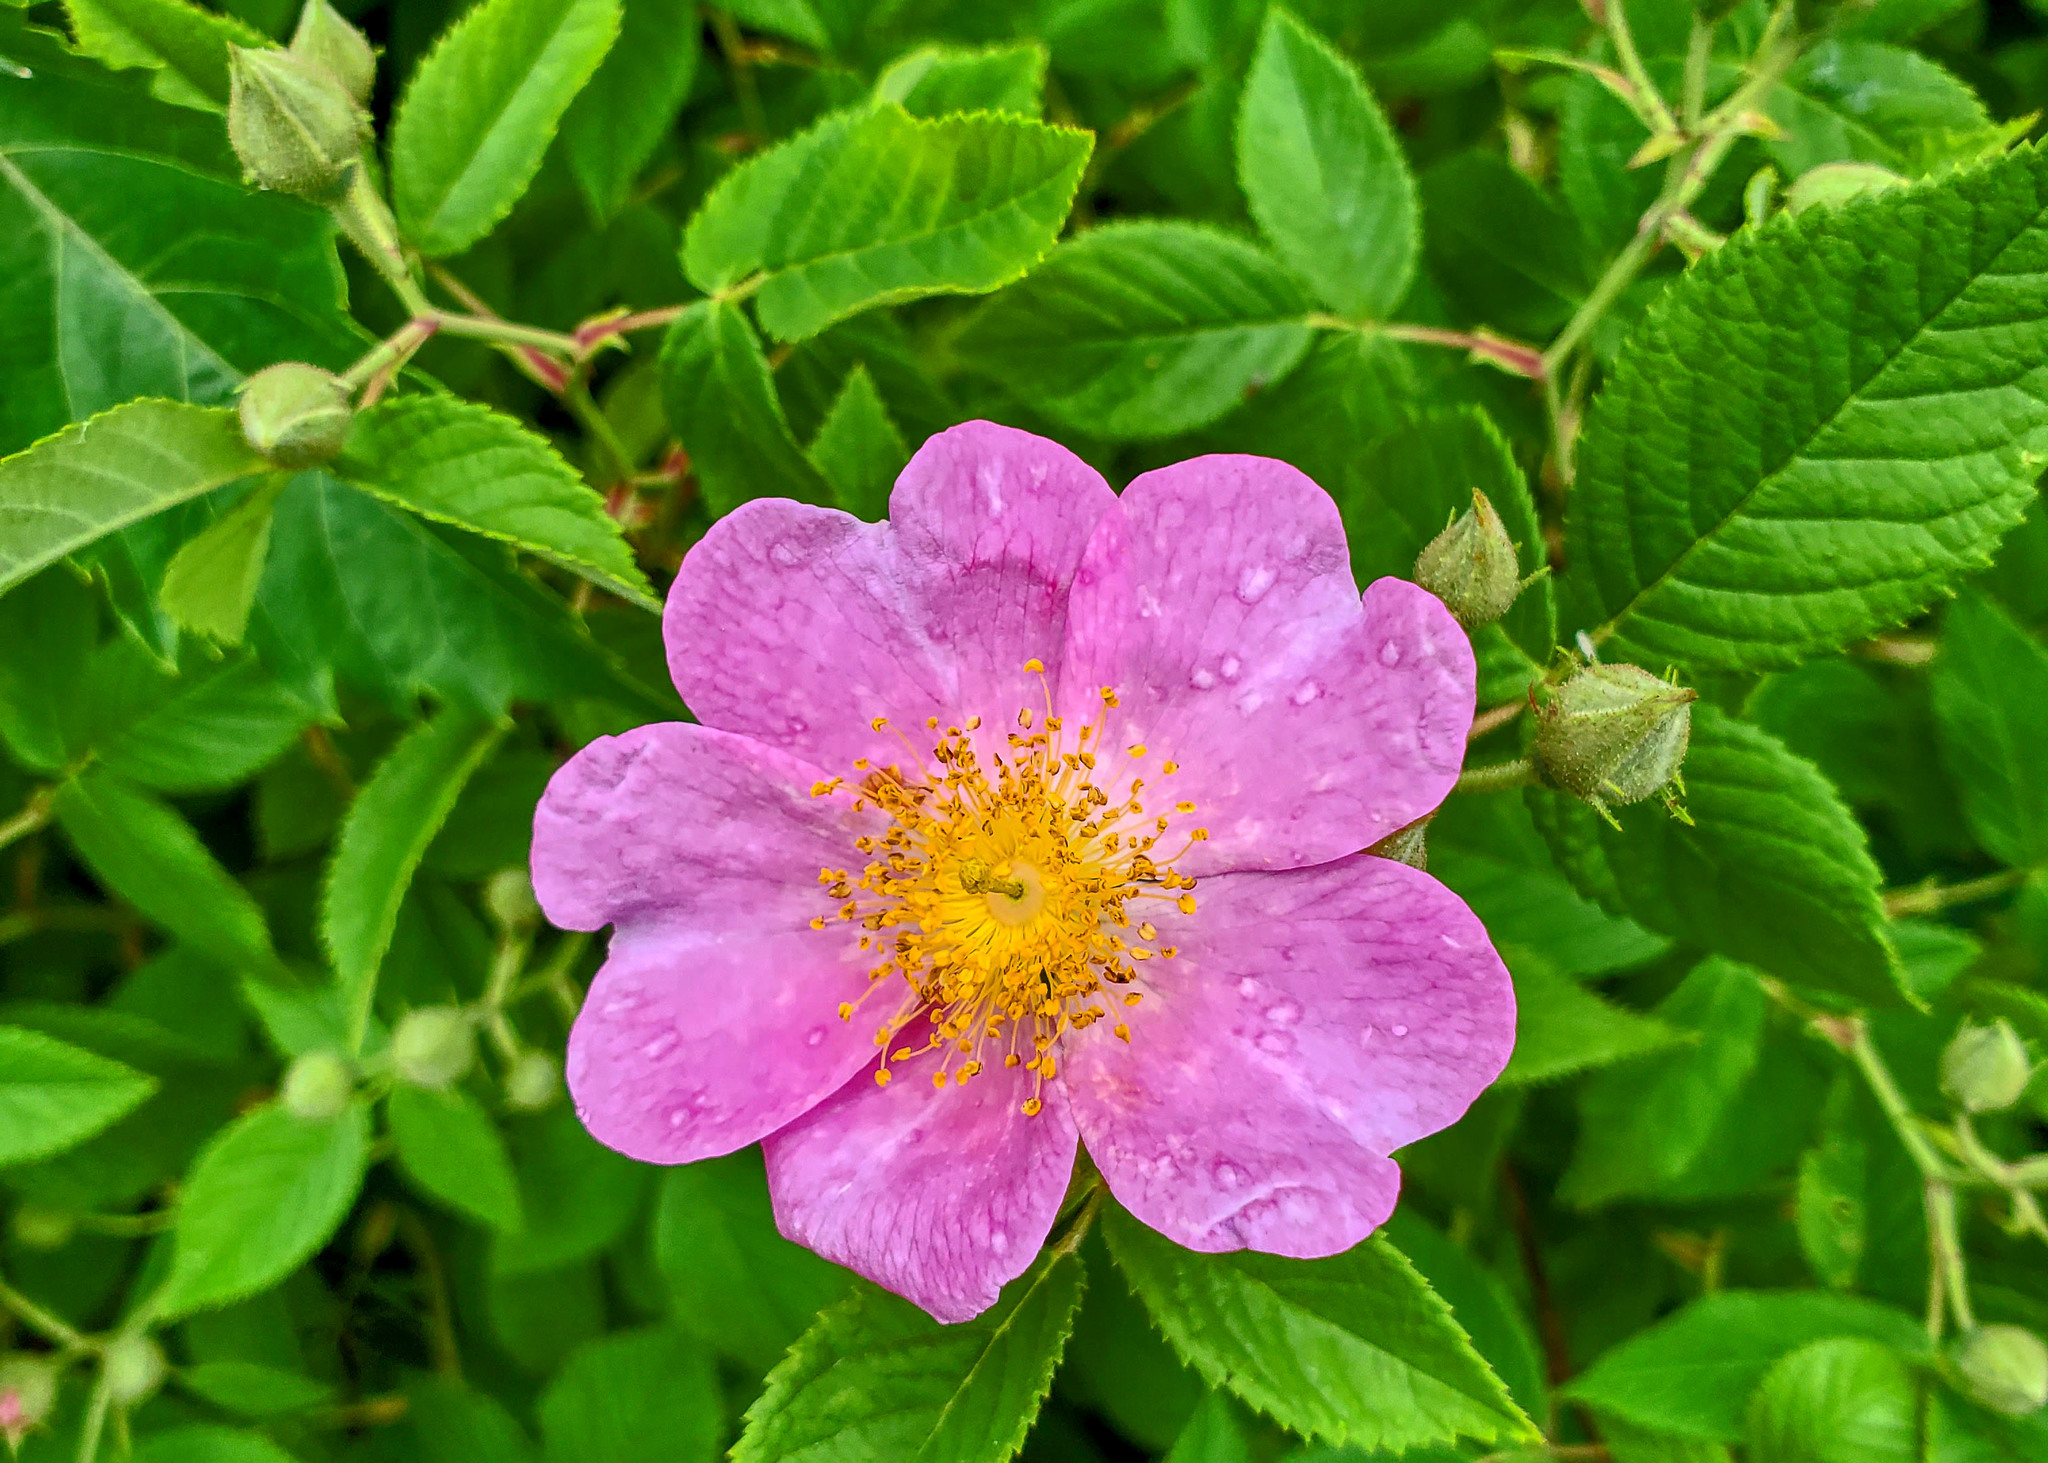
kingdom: Plantae
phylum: Tracheophyta
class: Magnoliopsida
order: Rosales
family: Rosaceae
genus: Rosa
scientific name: Rosa setigera
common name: Prairie rose
